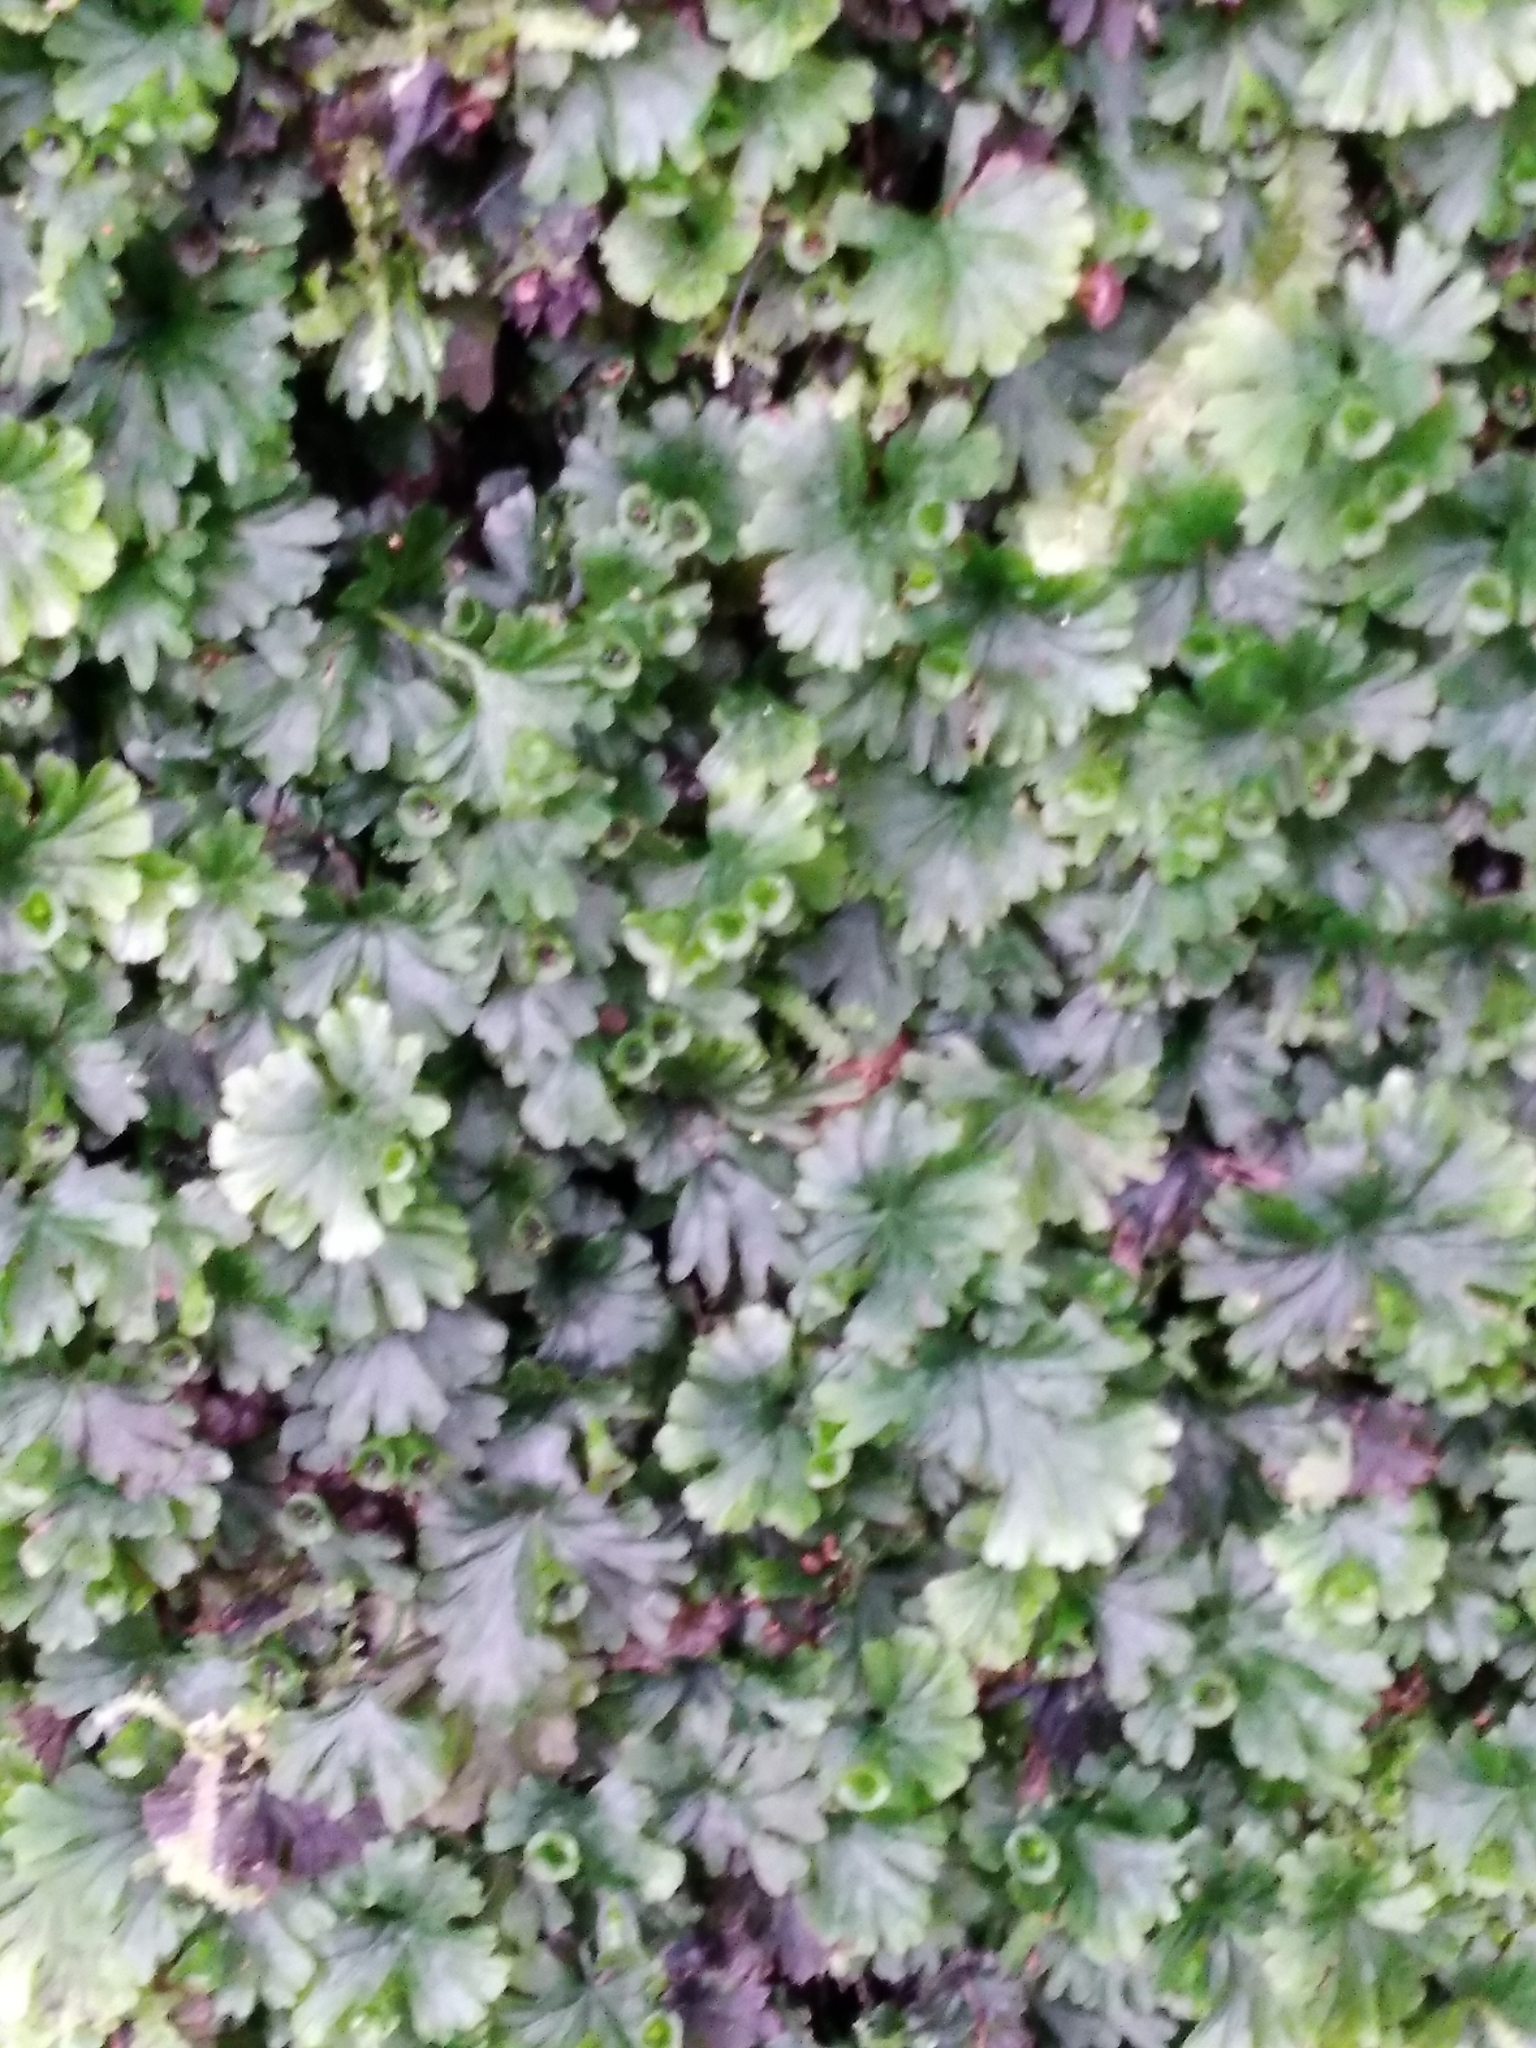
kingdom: Plantae
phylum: Tracheophyta
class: Polypodiopsida
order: Hymenophyllales
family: Hymenophyllaceae
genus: Crepidomanes
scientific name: Crepidomanes saxifragoides
